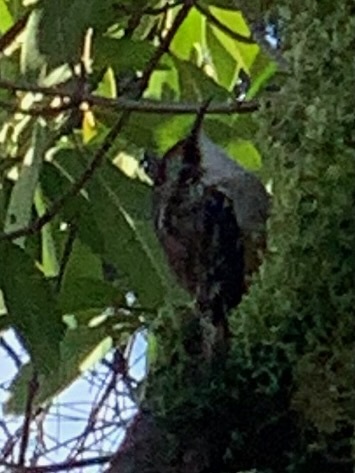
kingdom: Animalia
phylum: Chordata
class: Aves
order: Passeriformes
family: Certhiidae
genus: Certhia
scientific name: Certhia americana
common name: Brown creeper
